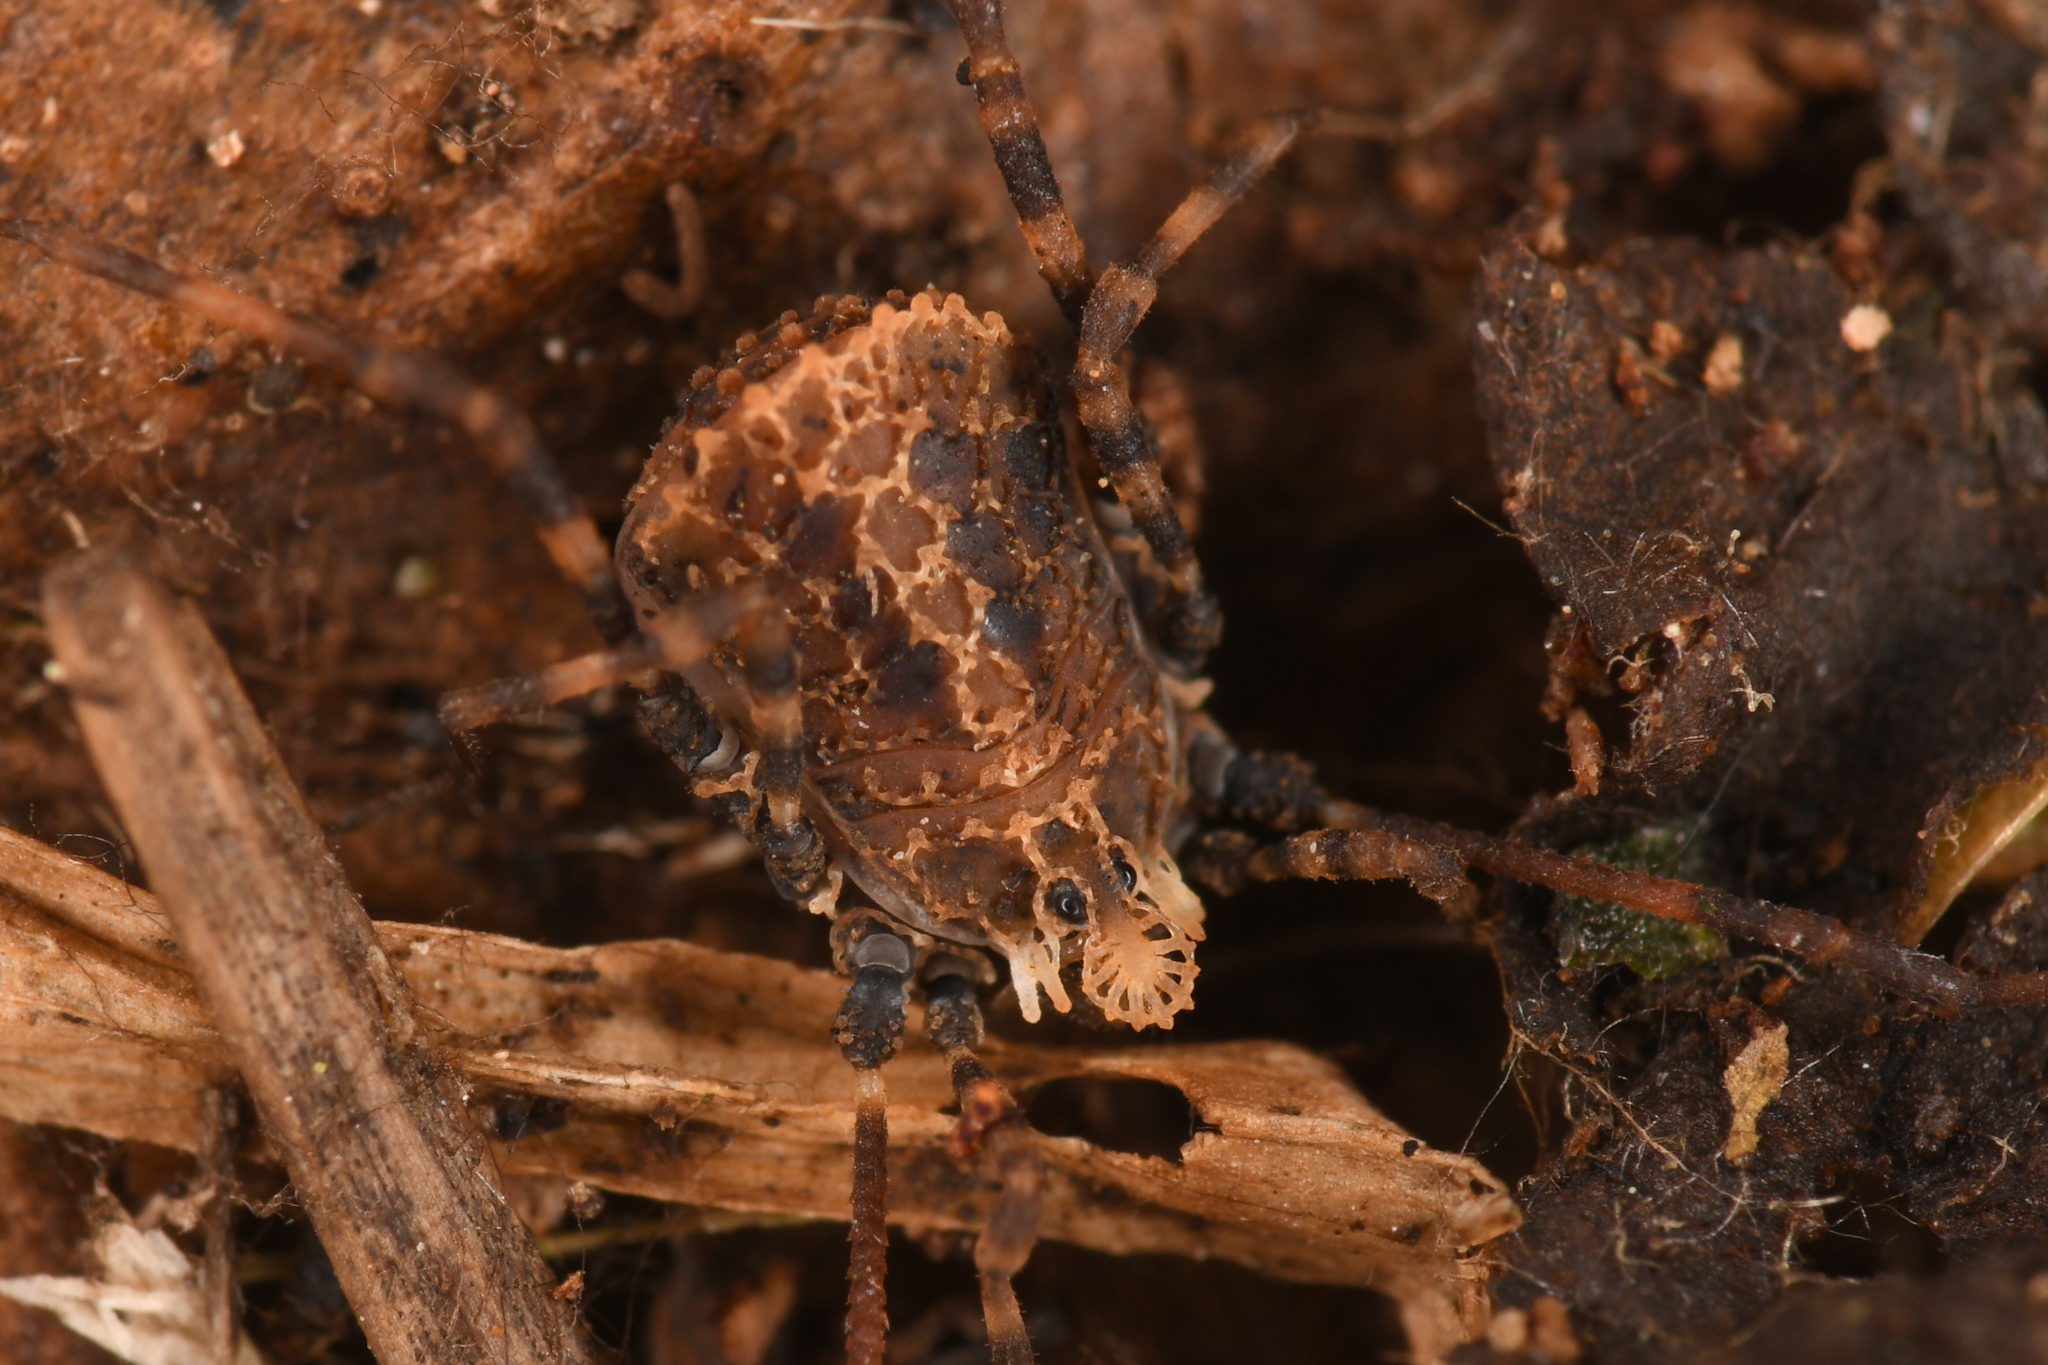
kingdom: Animalia
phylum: Arthropoda
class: Arachnida
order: Opiliones
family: Nemastomatidae
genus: Ortholasma
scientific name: Ortholasma pictipes
